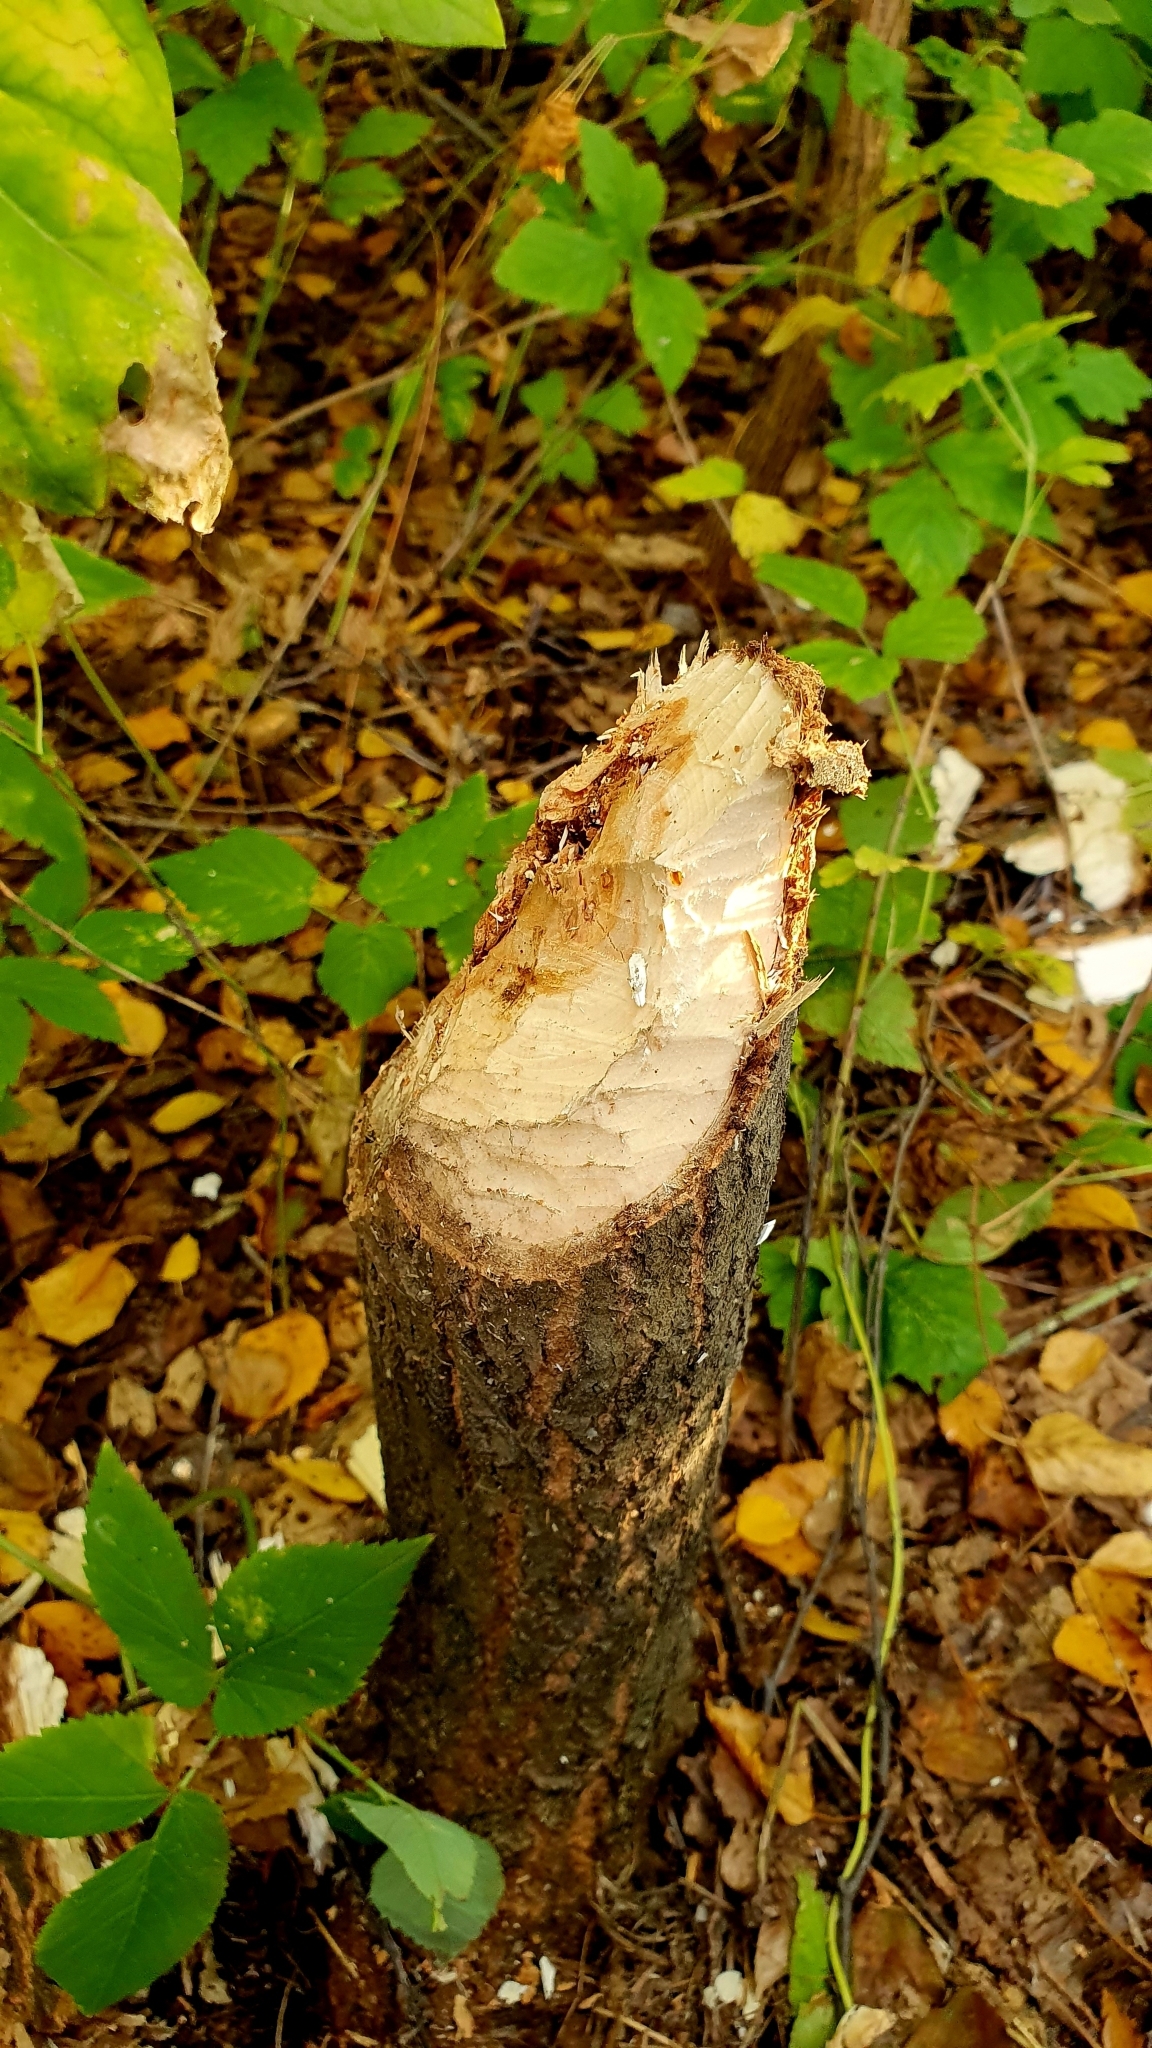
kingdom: Animalia
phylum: Chordata
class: Mammalia
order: Rodentia
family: Castoridae
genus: Castor
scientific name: Castor fiber
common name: Eurasian beaver
